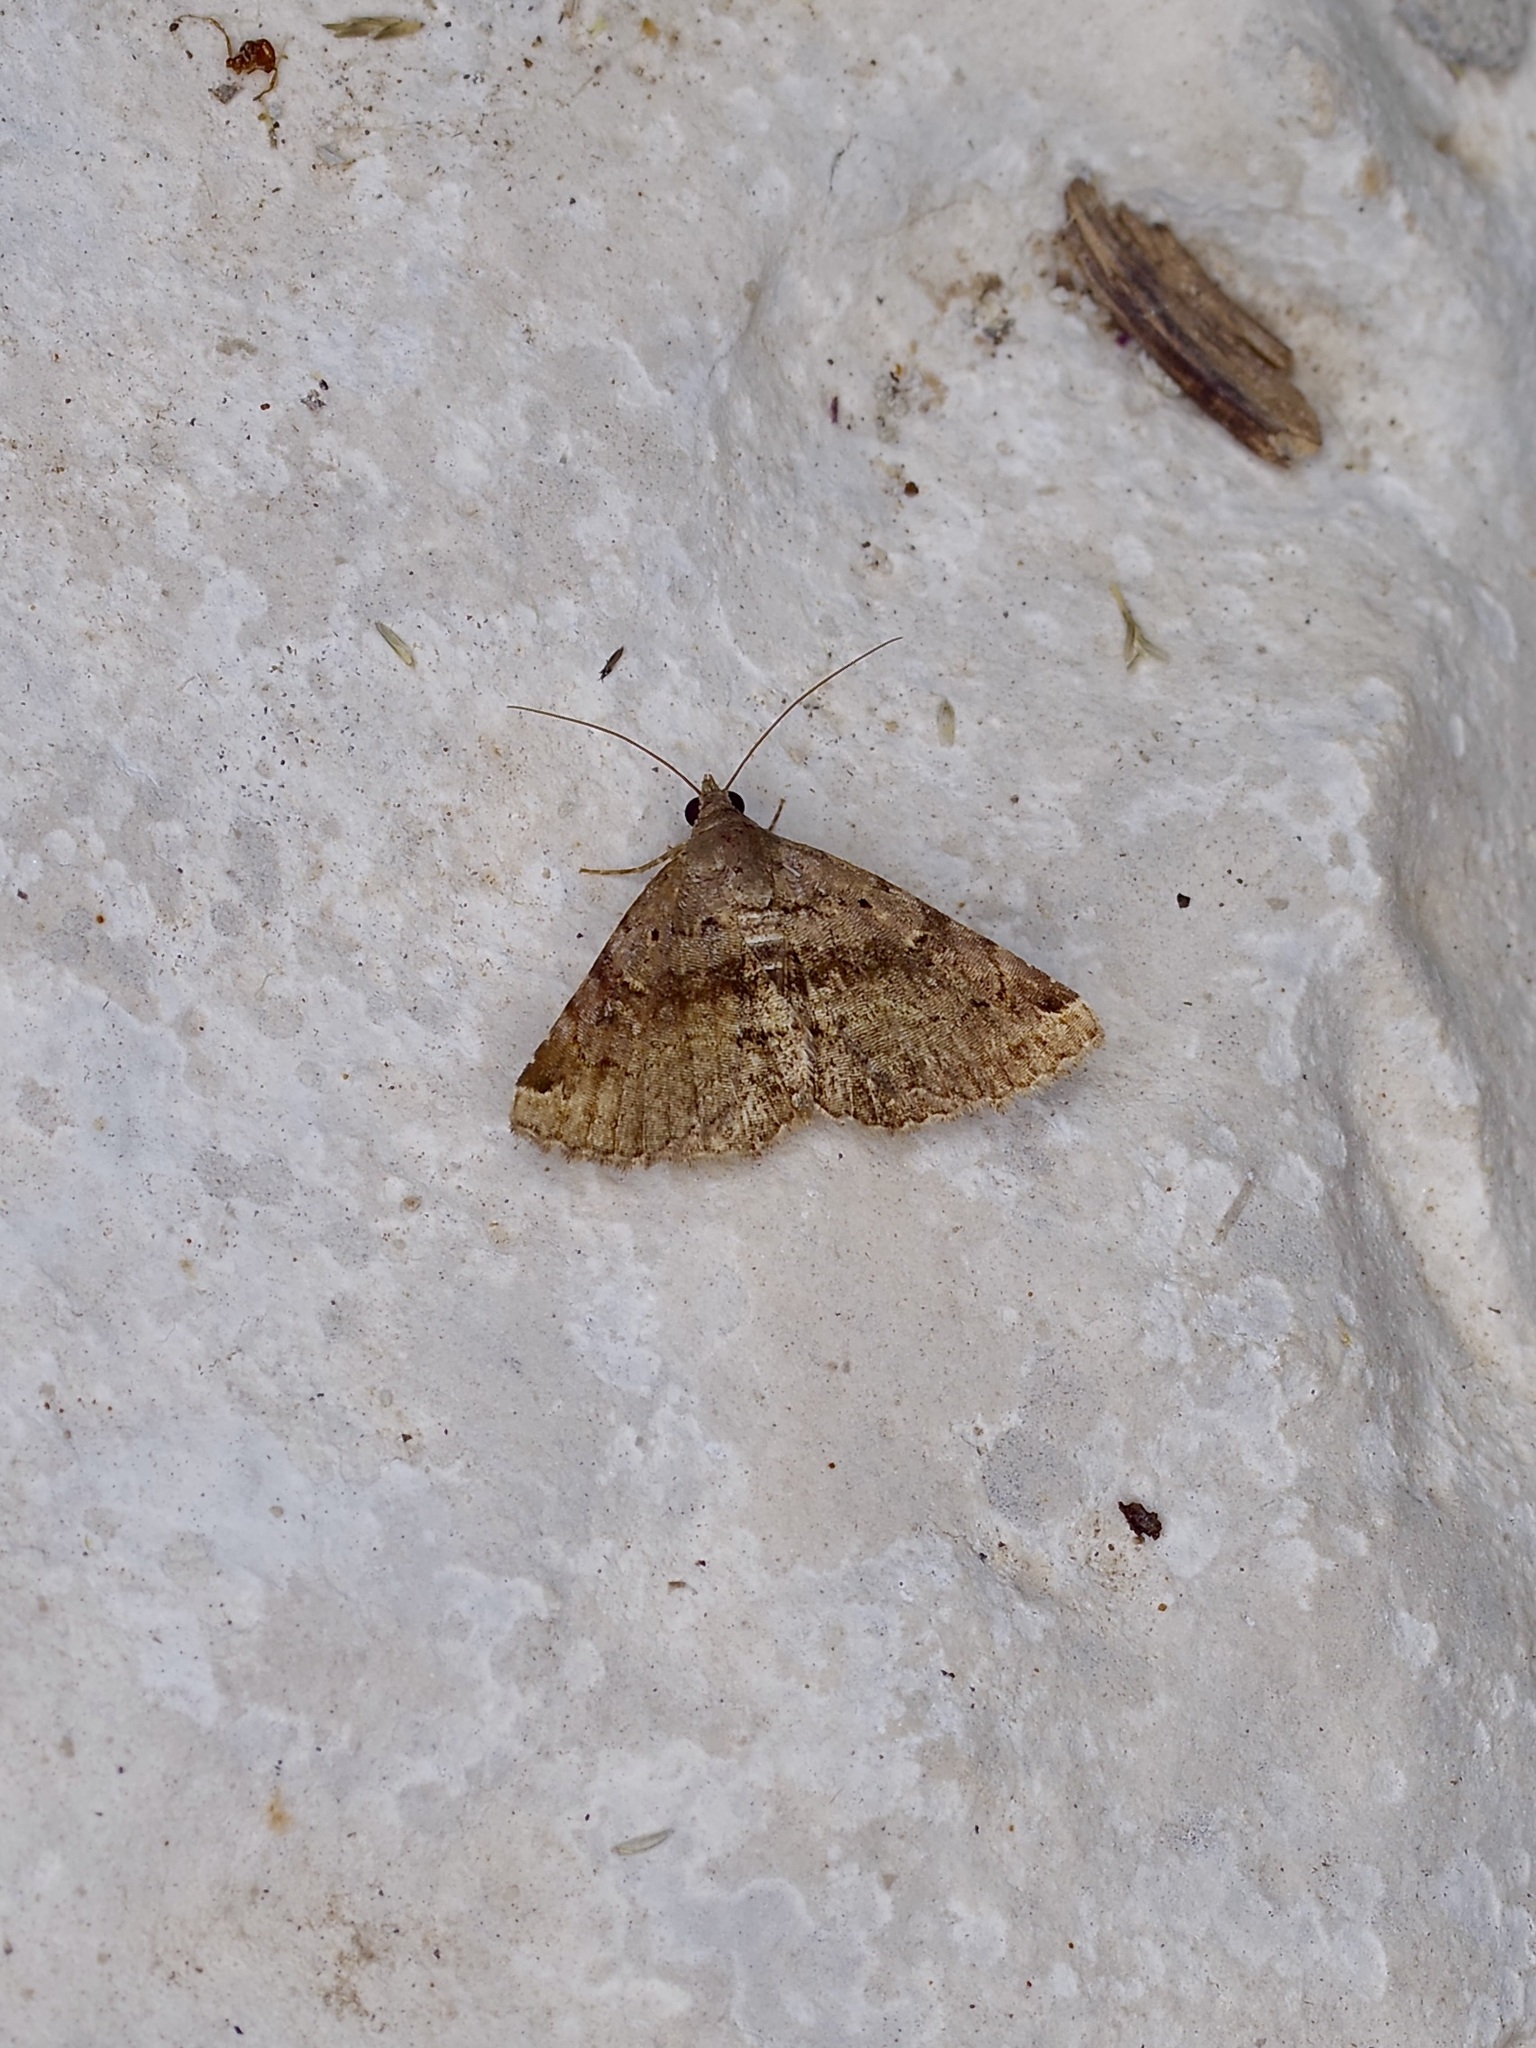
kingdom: Animalia
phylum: Arthropoda
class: Insecta
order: Lepidoptera
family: Erebidae
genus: Toxonprucha
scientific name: Toxonprucha crudelis
